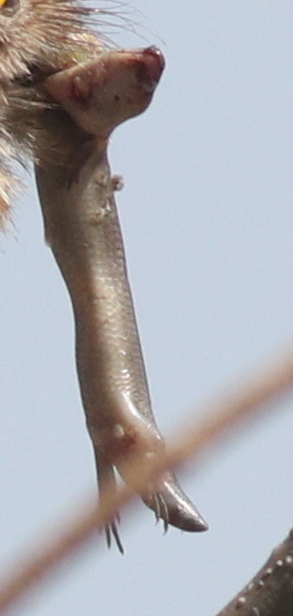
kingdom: Animalia
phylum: Chordata
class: Squamata
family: Scincidae
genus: Mochlus
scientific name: Mochlus sundevallii
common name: Peters' eyelid skink
